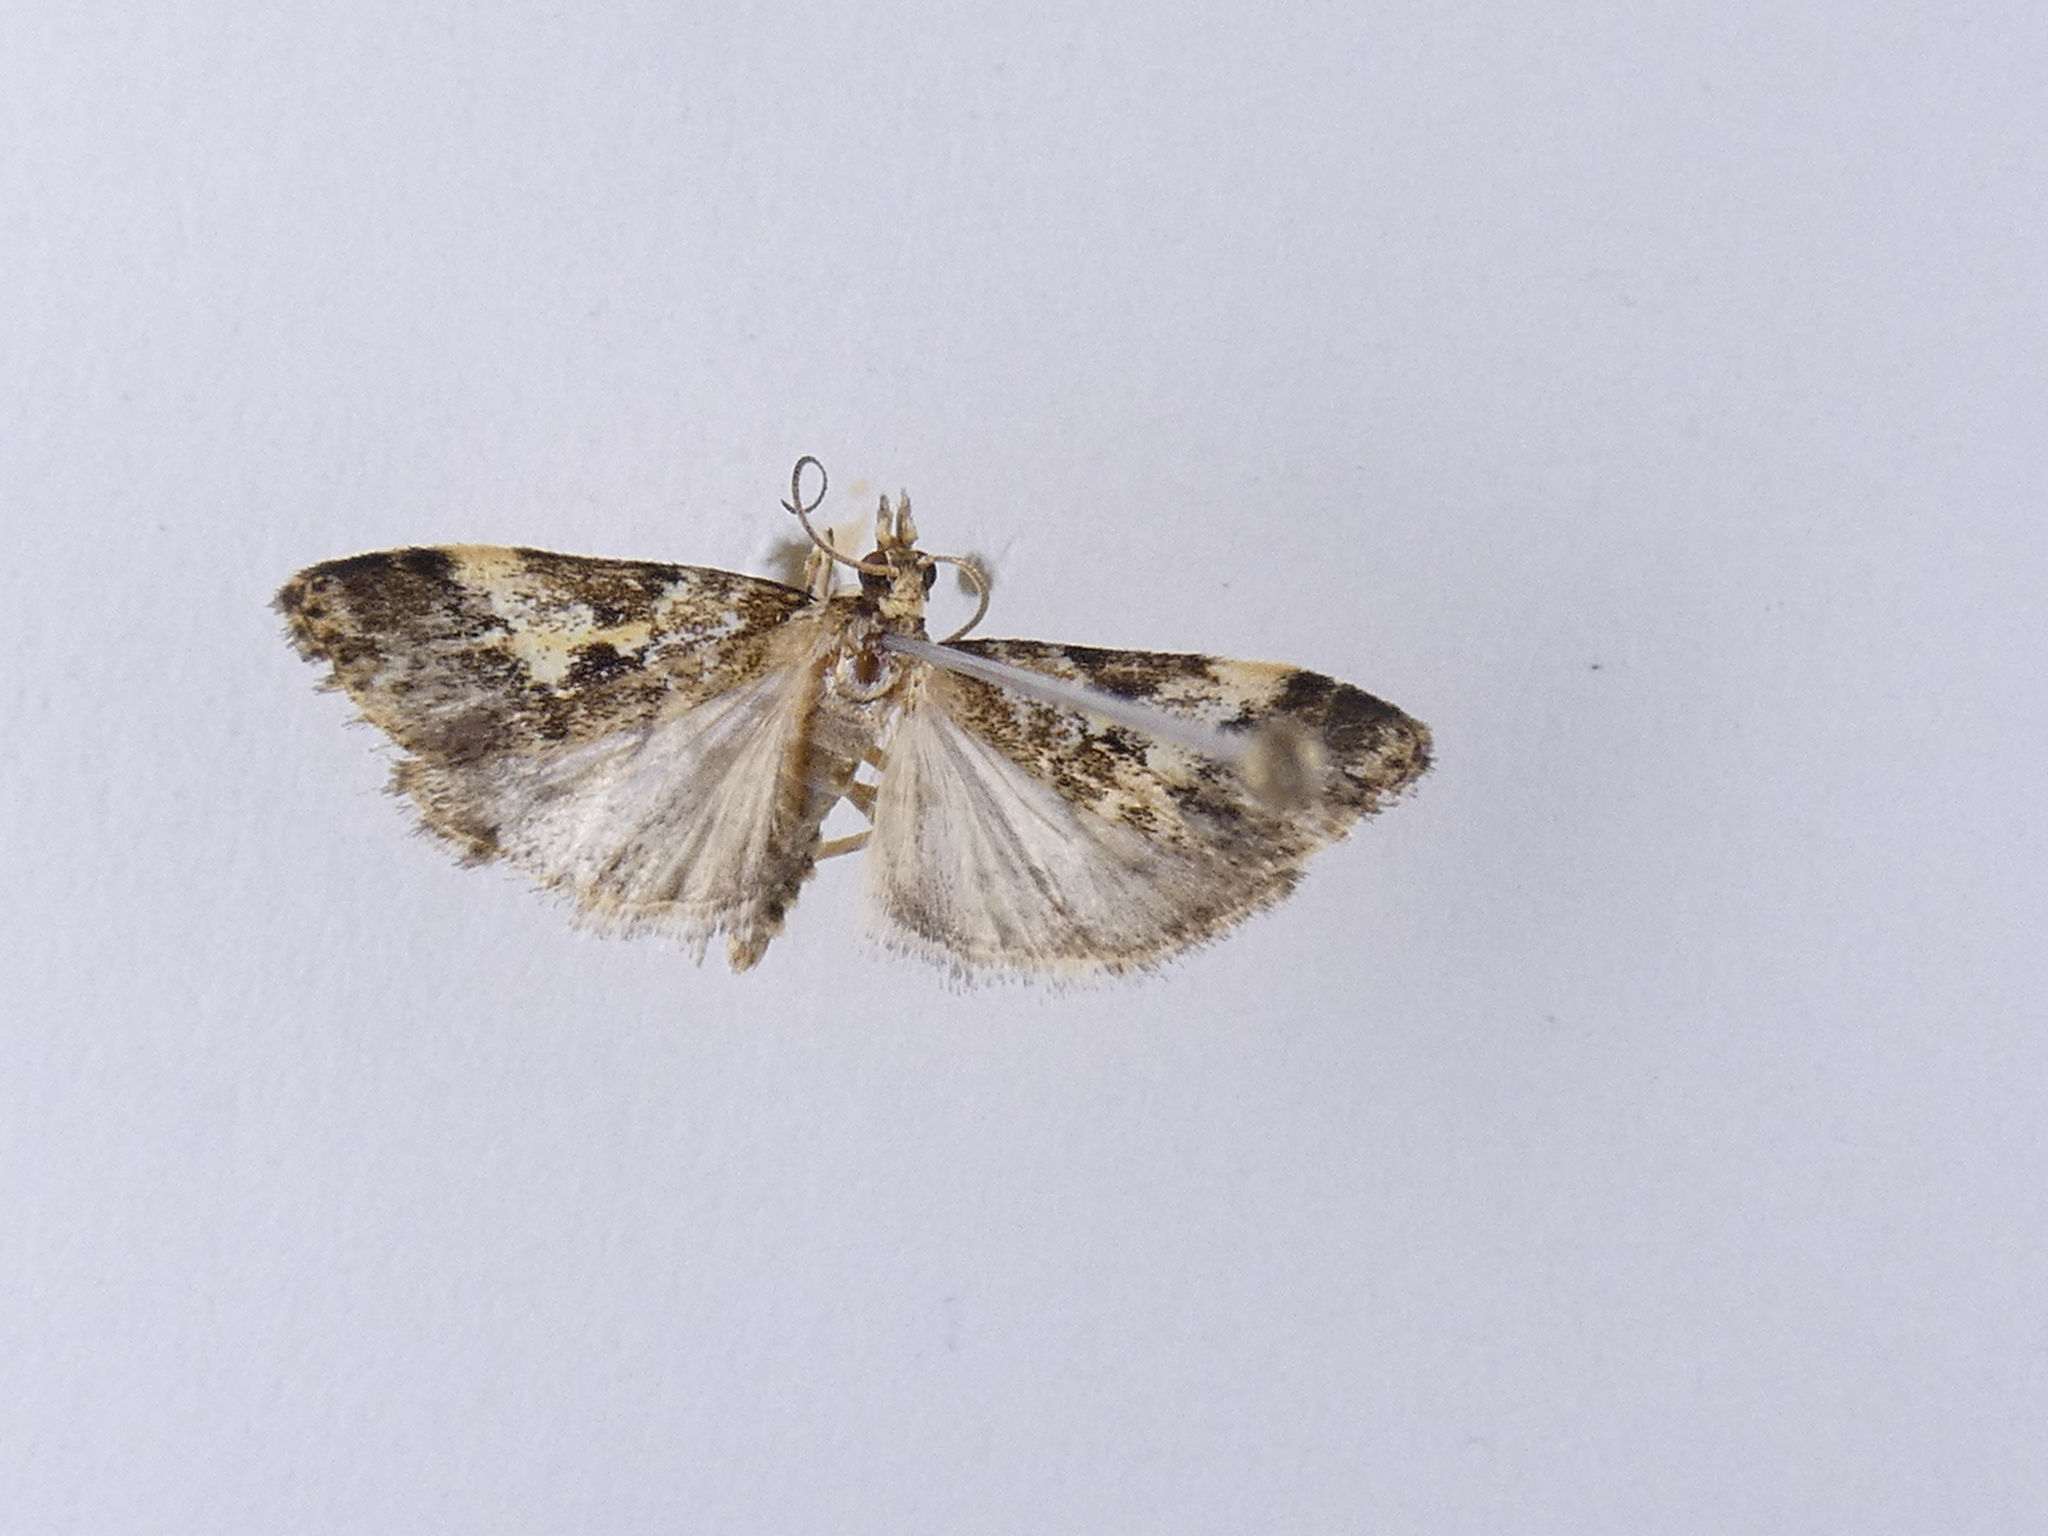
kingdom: Animalia
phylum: Arthropoda
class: Insecta
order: Lepidoptera
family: Crambidae
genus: Eudonia
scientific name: Eudonia characta
